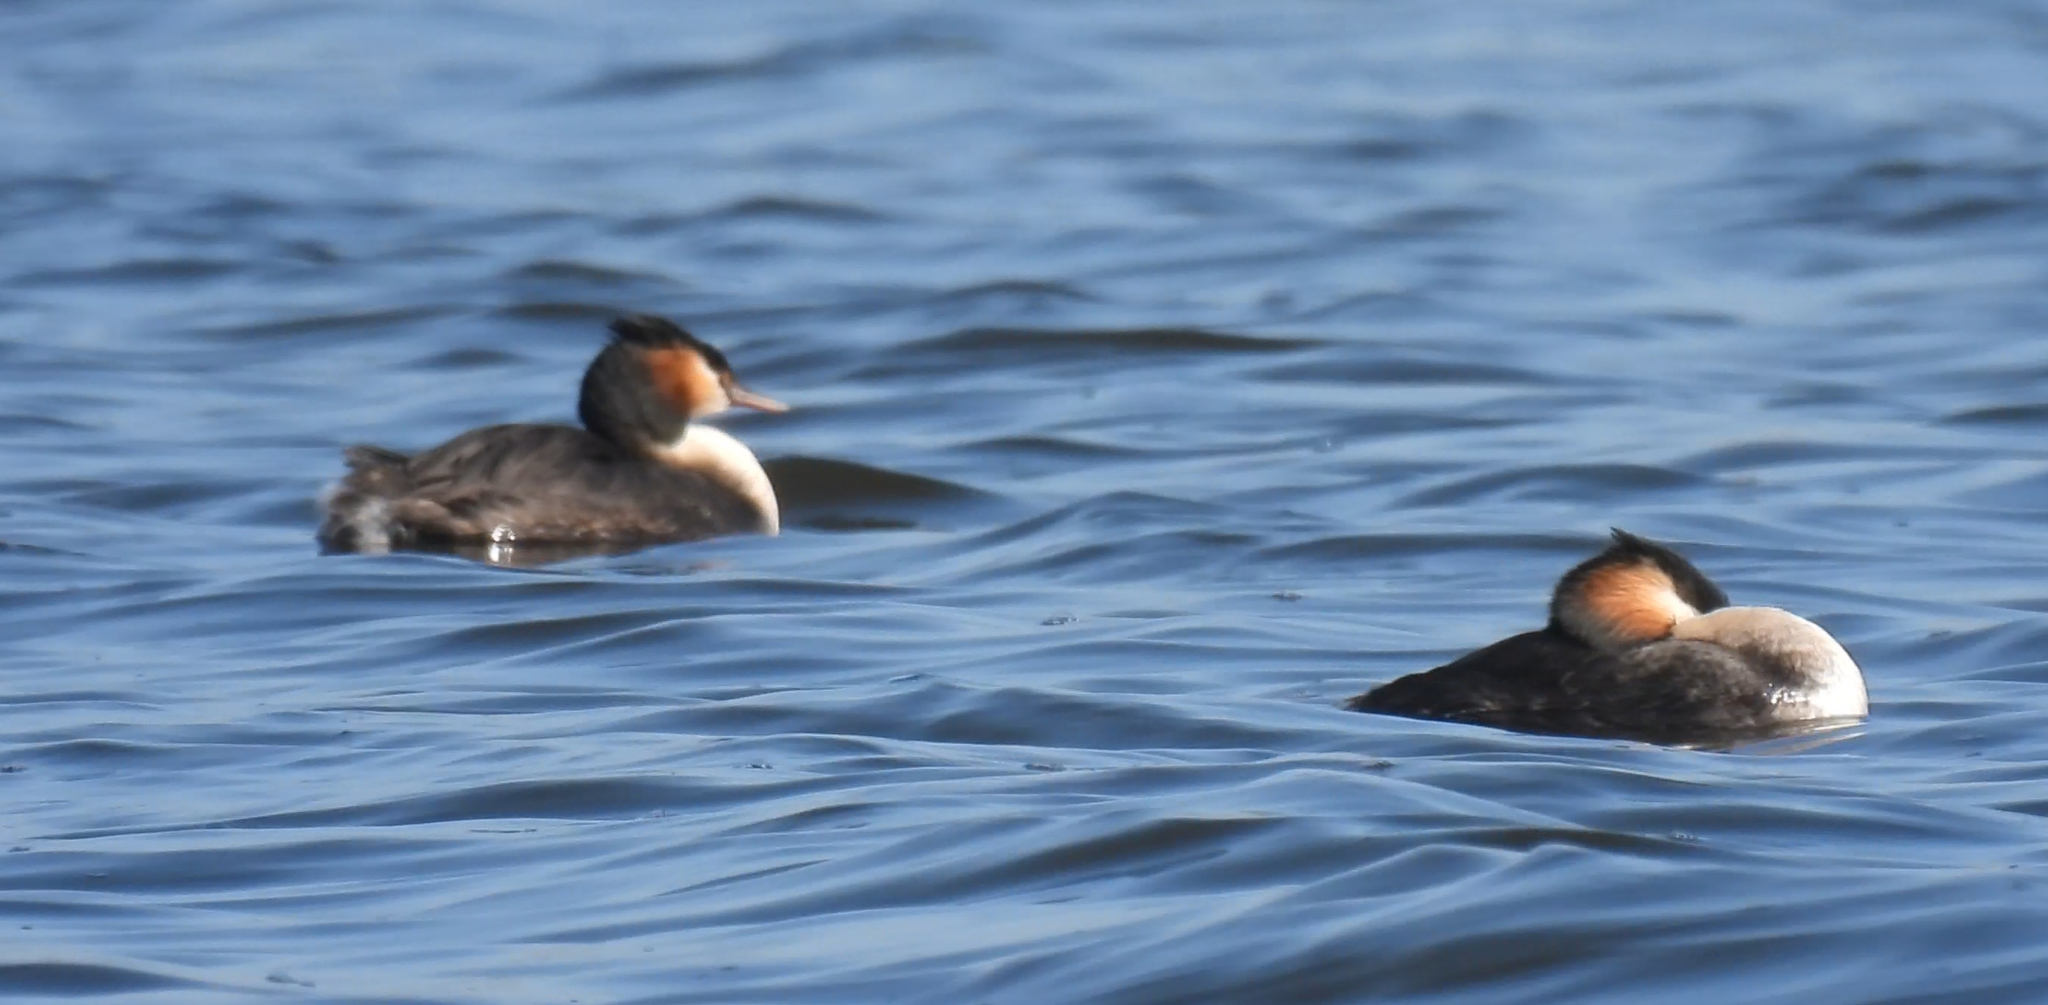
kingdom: Animalia
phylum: Chordata
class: Aves
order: Podicipediformes
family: Podicipedidae
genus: Podiceps
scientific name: Podiceps cristatus
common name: Great crested grebe
